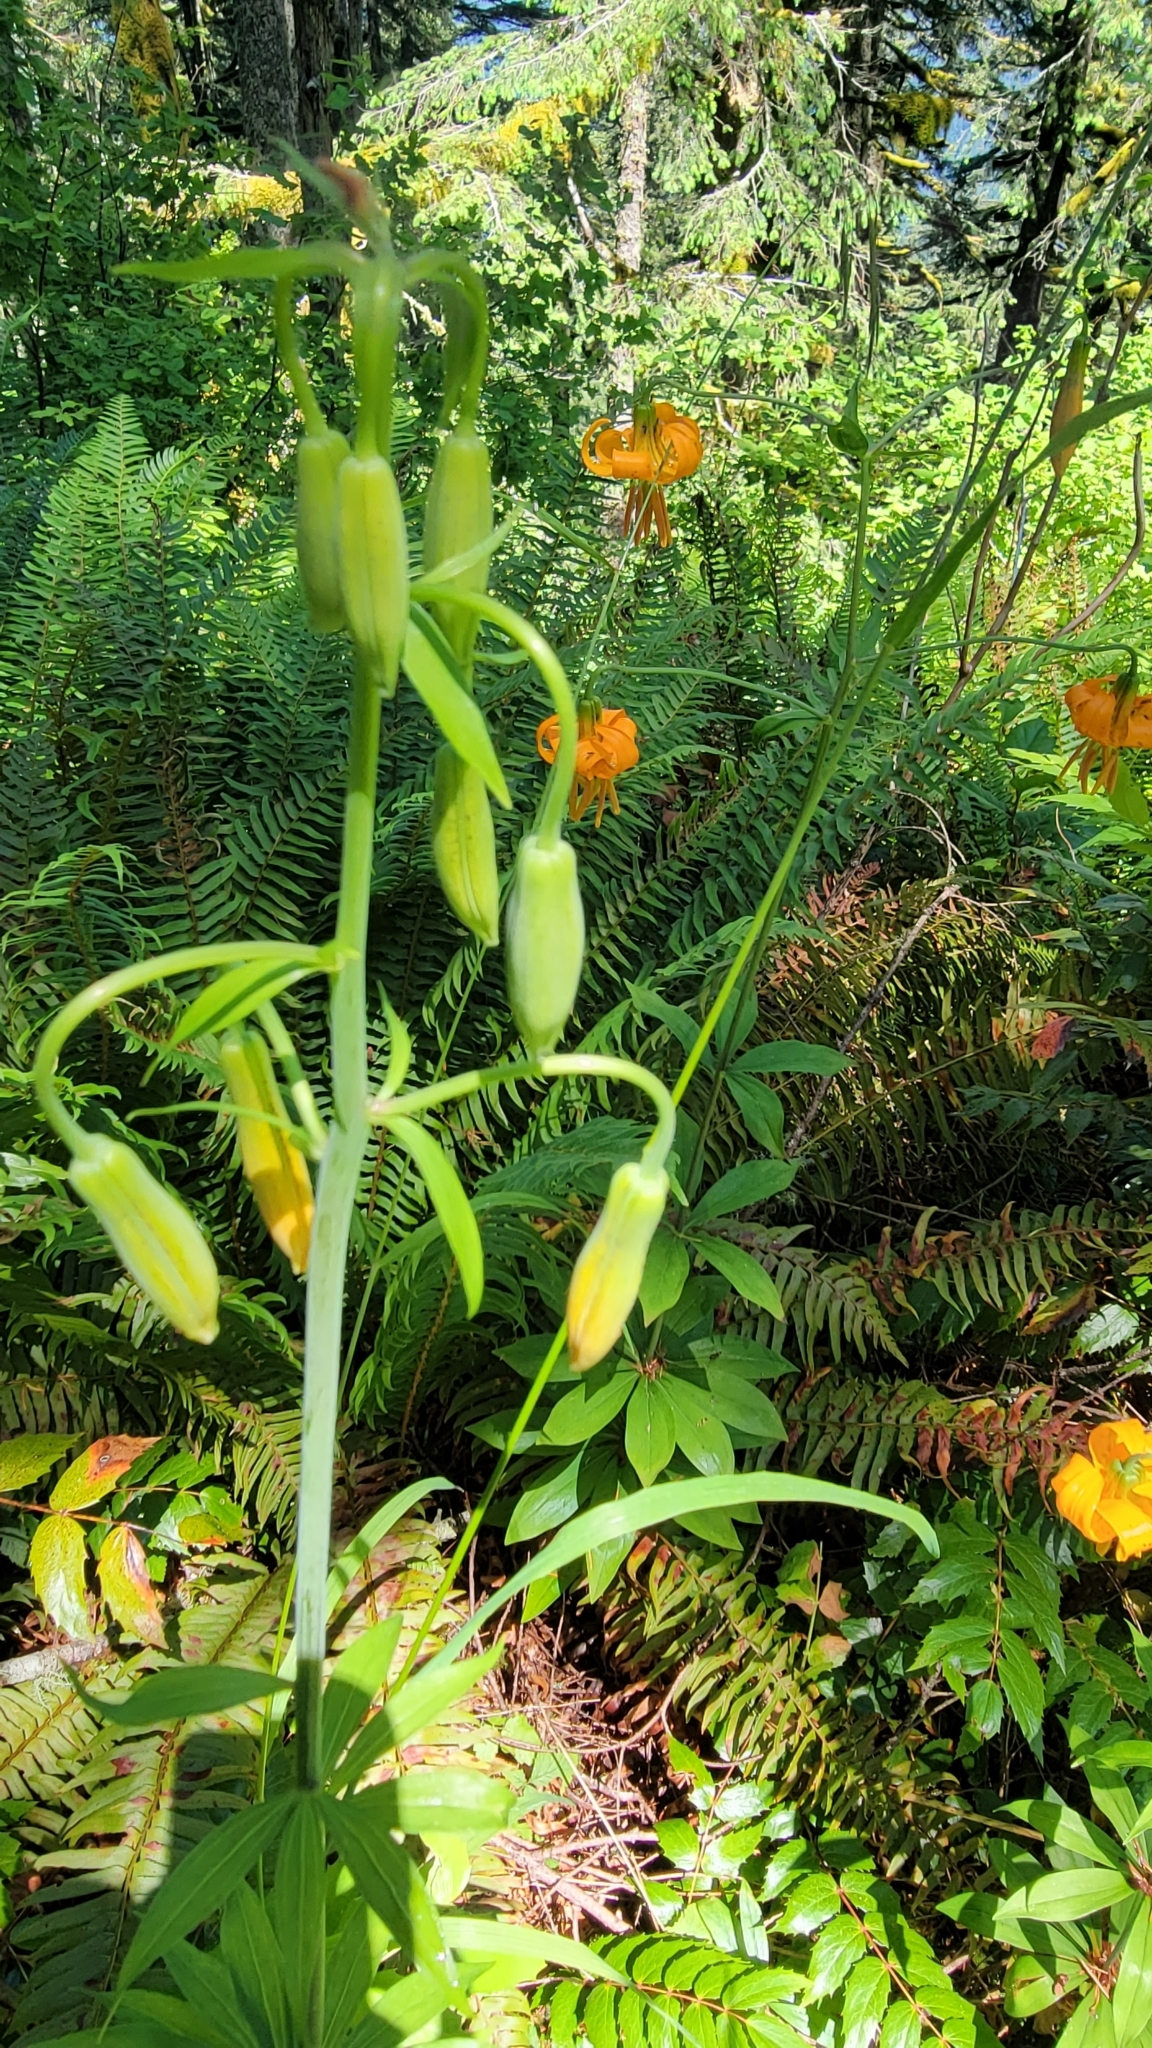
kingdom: Plantae
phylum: Tracheophyta
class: Liliopsida
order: Liliales
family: Liliaceae
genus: Lilium
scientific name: Lilium columbianum
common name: Columbia lily
